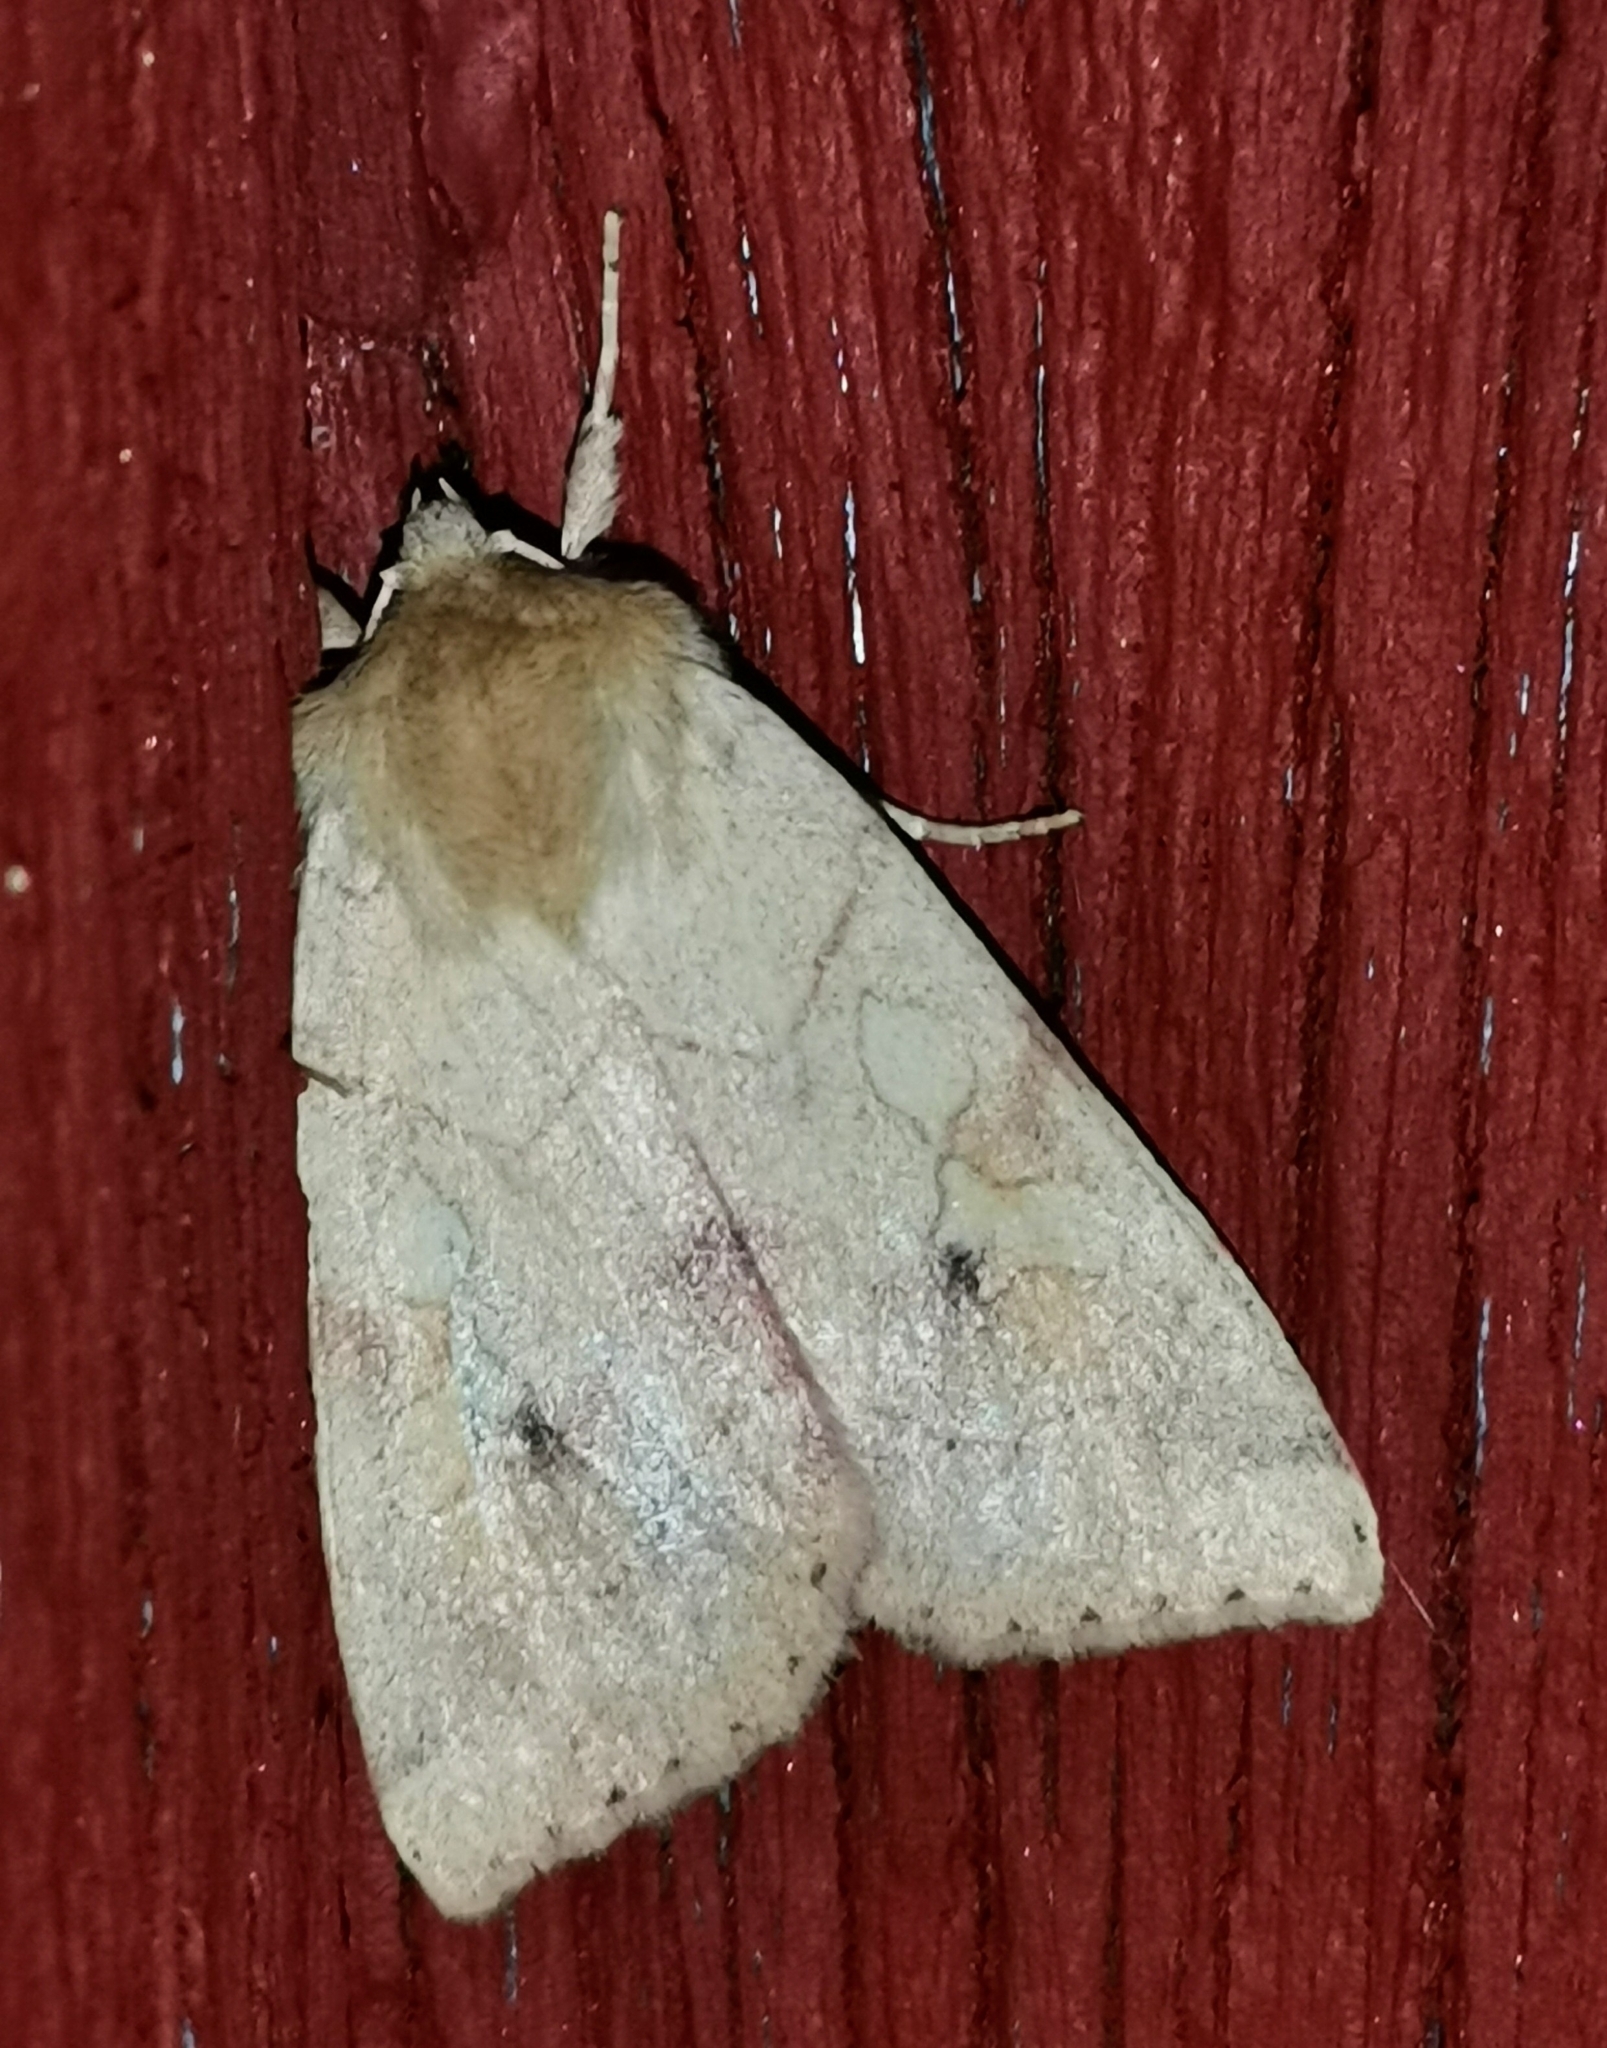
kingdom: Animalia
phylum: Arthropoda
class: Insecta
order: Lepidoptera
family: Noctuidae
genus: Enargia
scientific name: Enargia paleacea
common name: Angle-striped sallow
